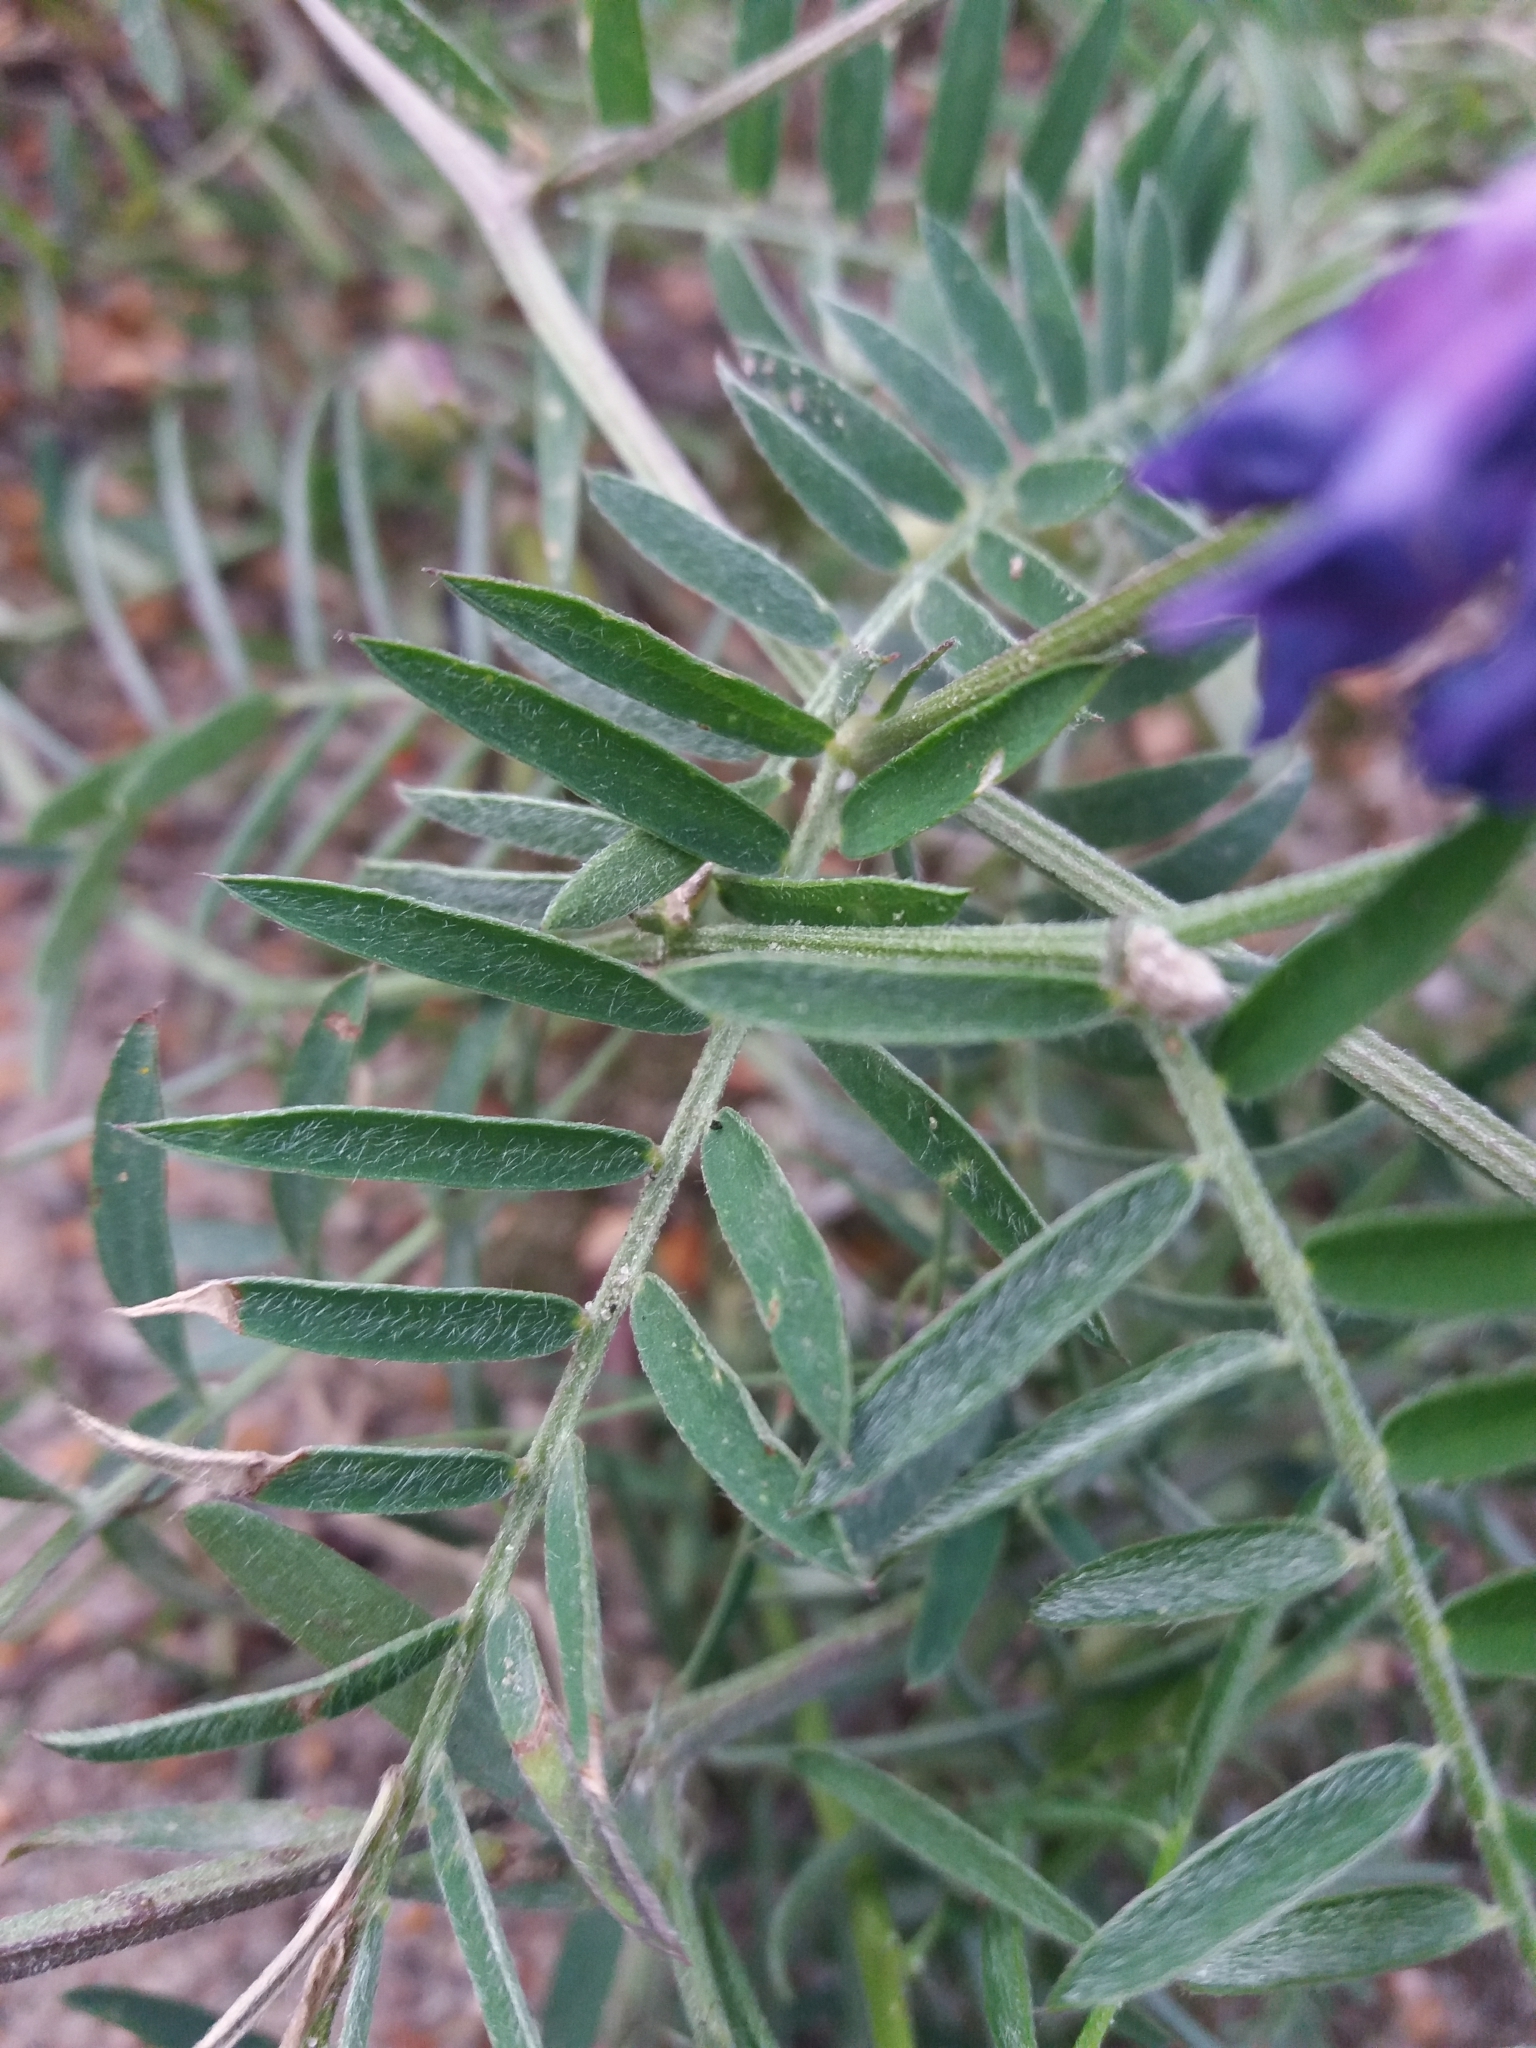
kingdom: Plantae
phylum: Tracheophyta
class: Magnoliopsida
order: Fabales
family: Fabaceae
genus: Vicia
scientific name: Vicia cracca
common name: Bird vetch
